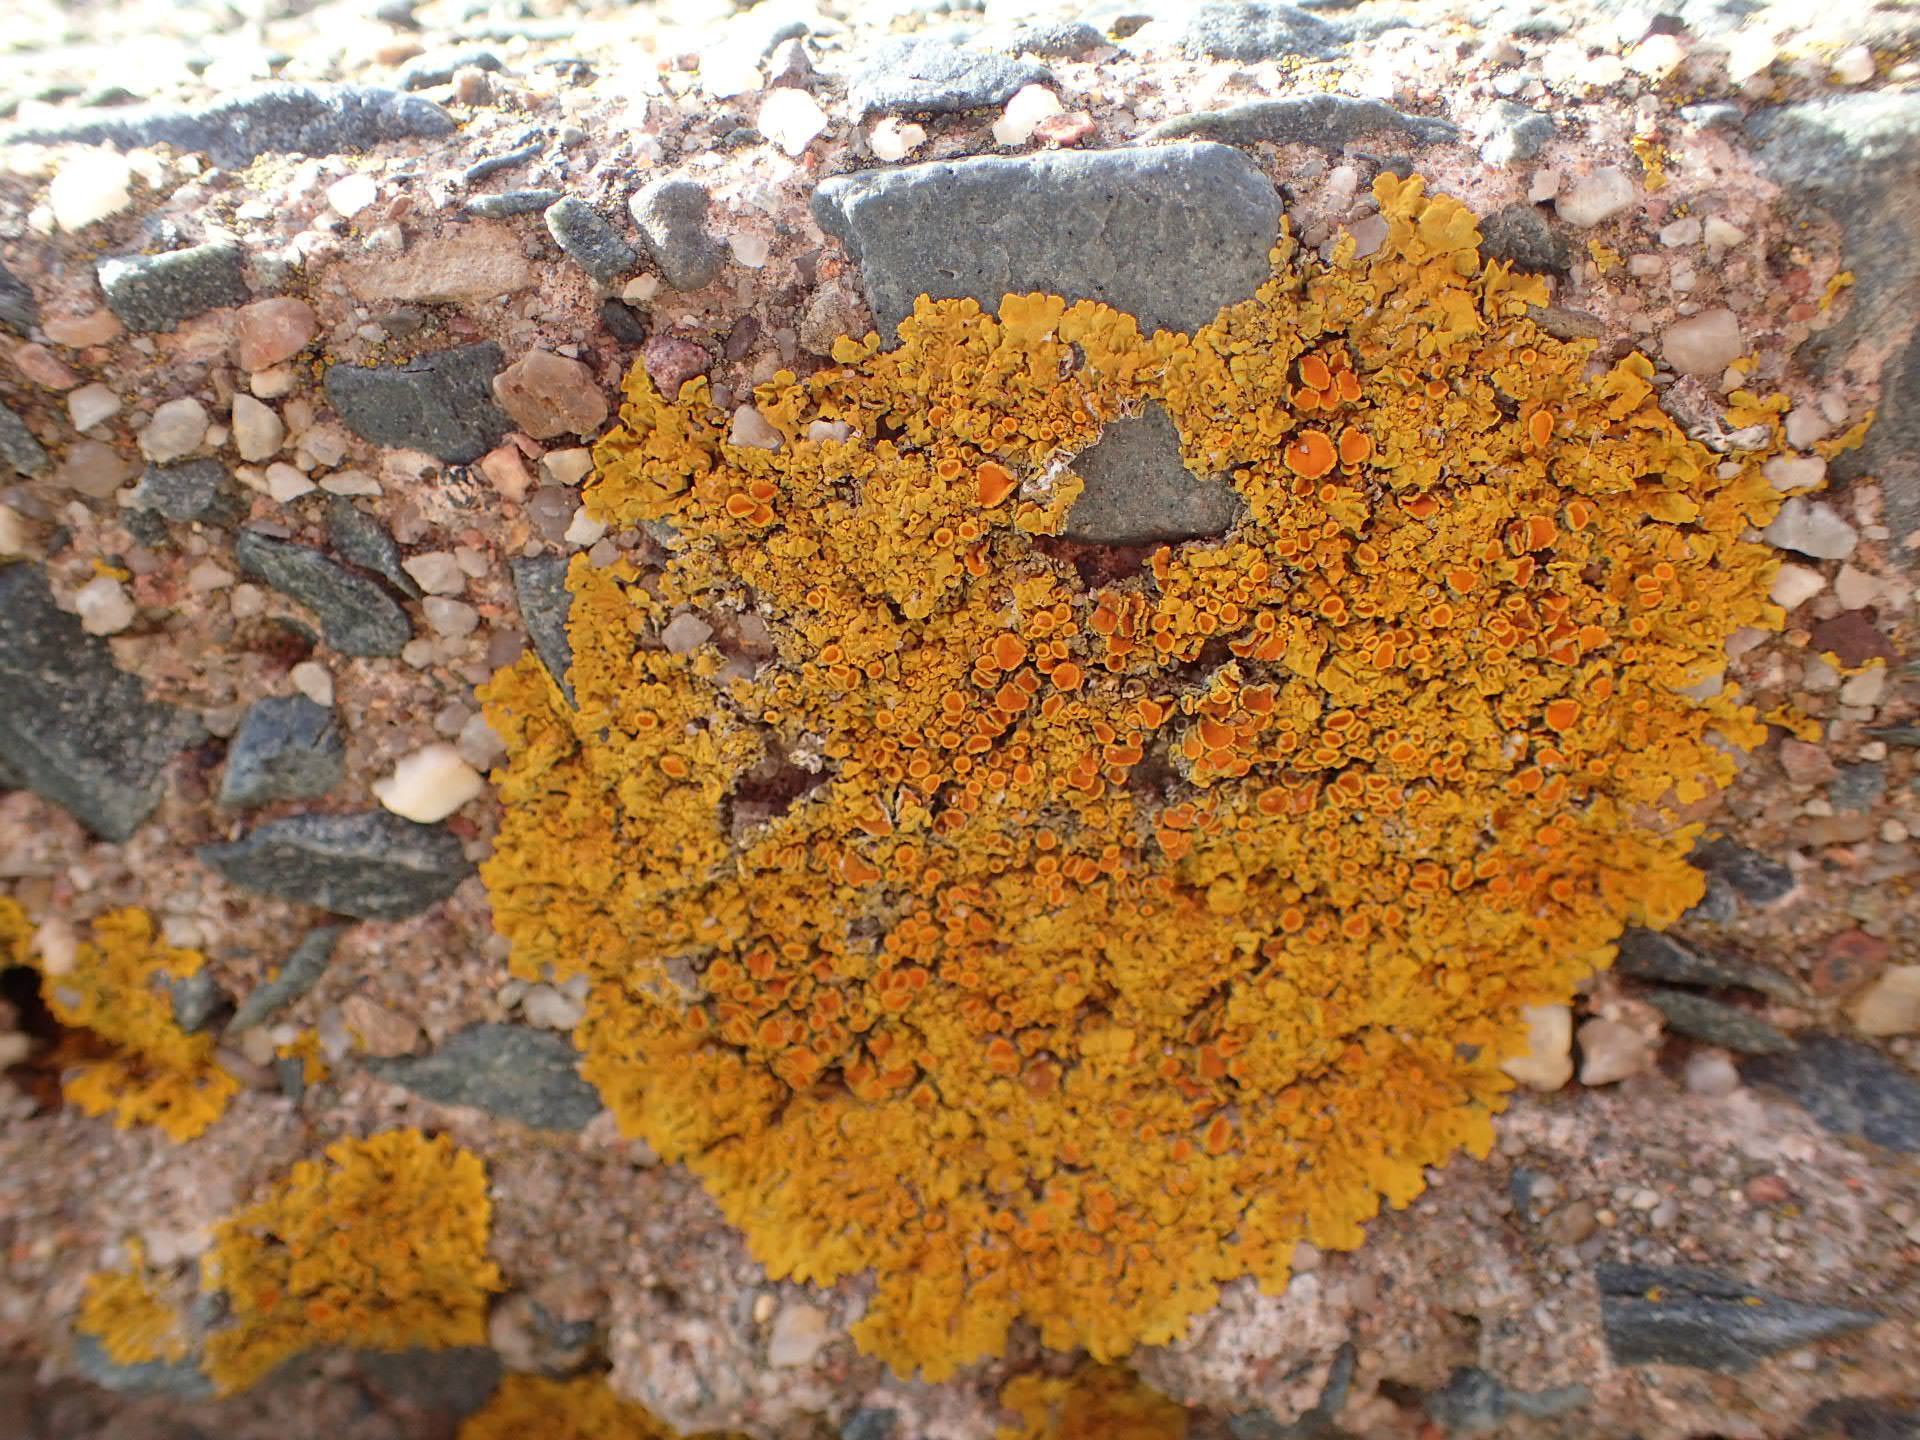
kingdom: Fungi
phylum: Ascomycota
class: Lecanoromycetes
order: Teloschistales
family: Teloschistaceae
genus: Xanthoria
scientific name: Xanthoria parietina
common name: Common orange lichen
